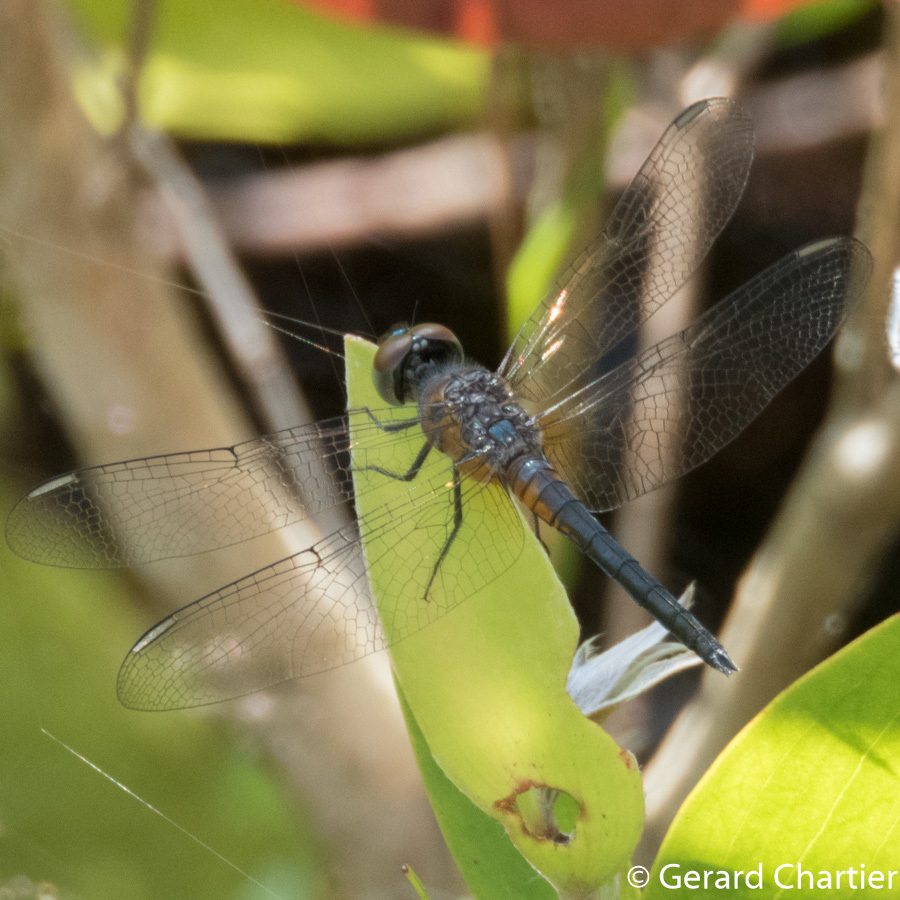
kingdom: Animalia
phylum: Arthropoda
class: Insecta
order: Odonata
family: Libellulidae
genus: Brachydiplax
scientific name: Brachydiplax chalybea
